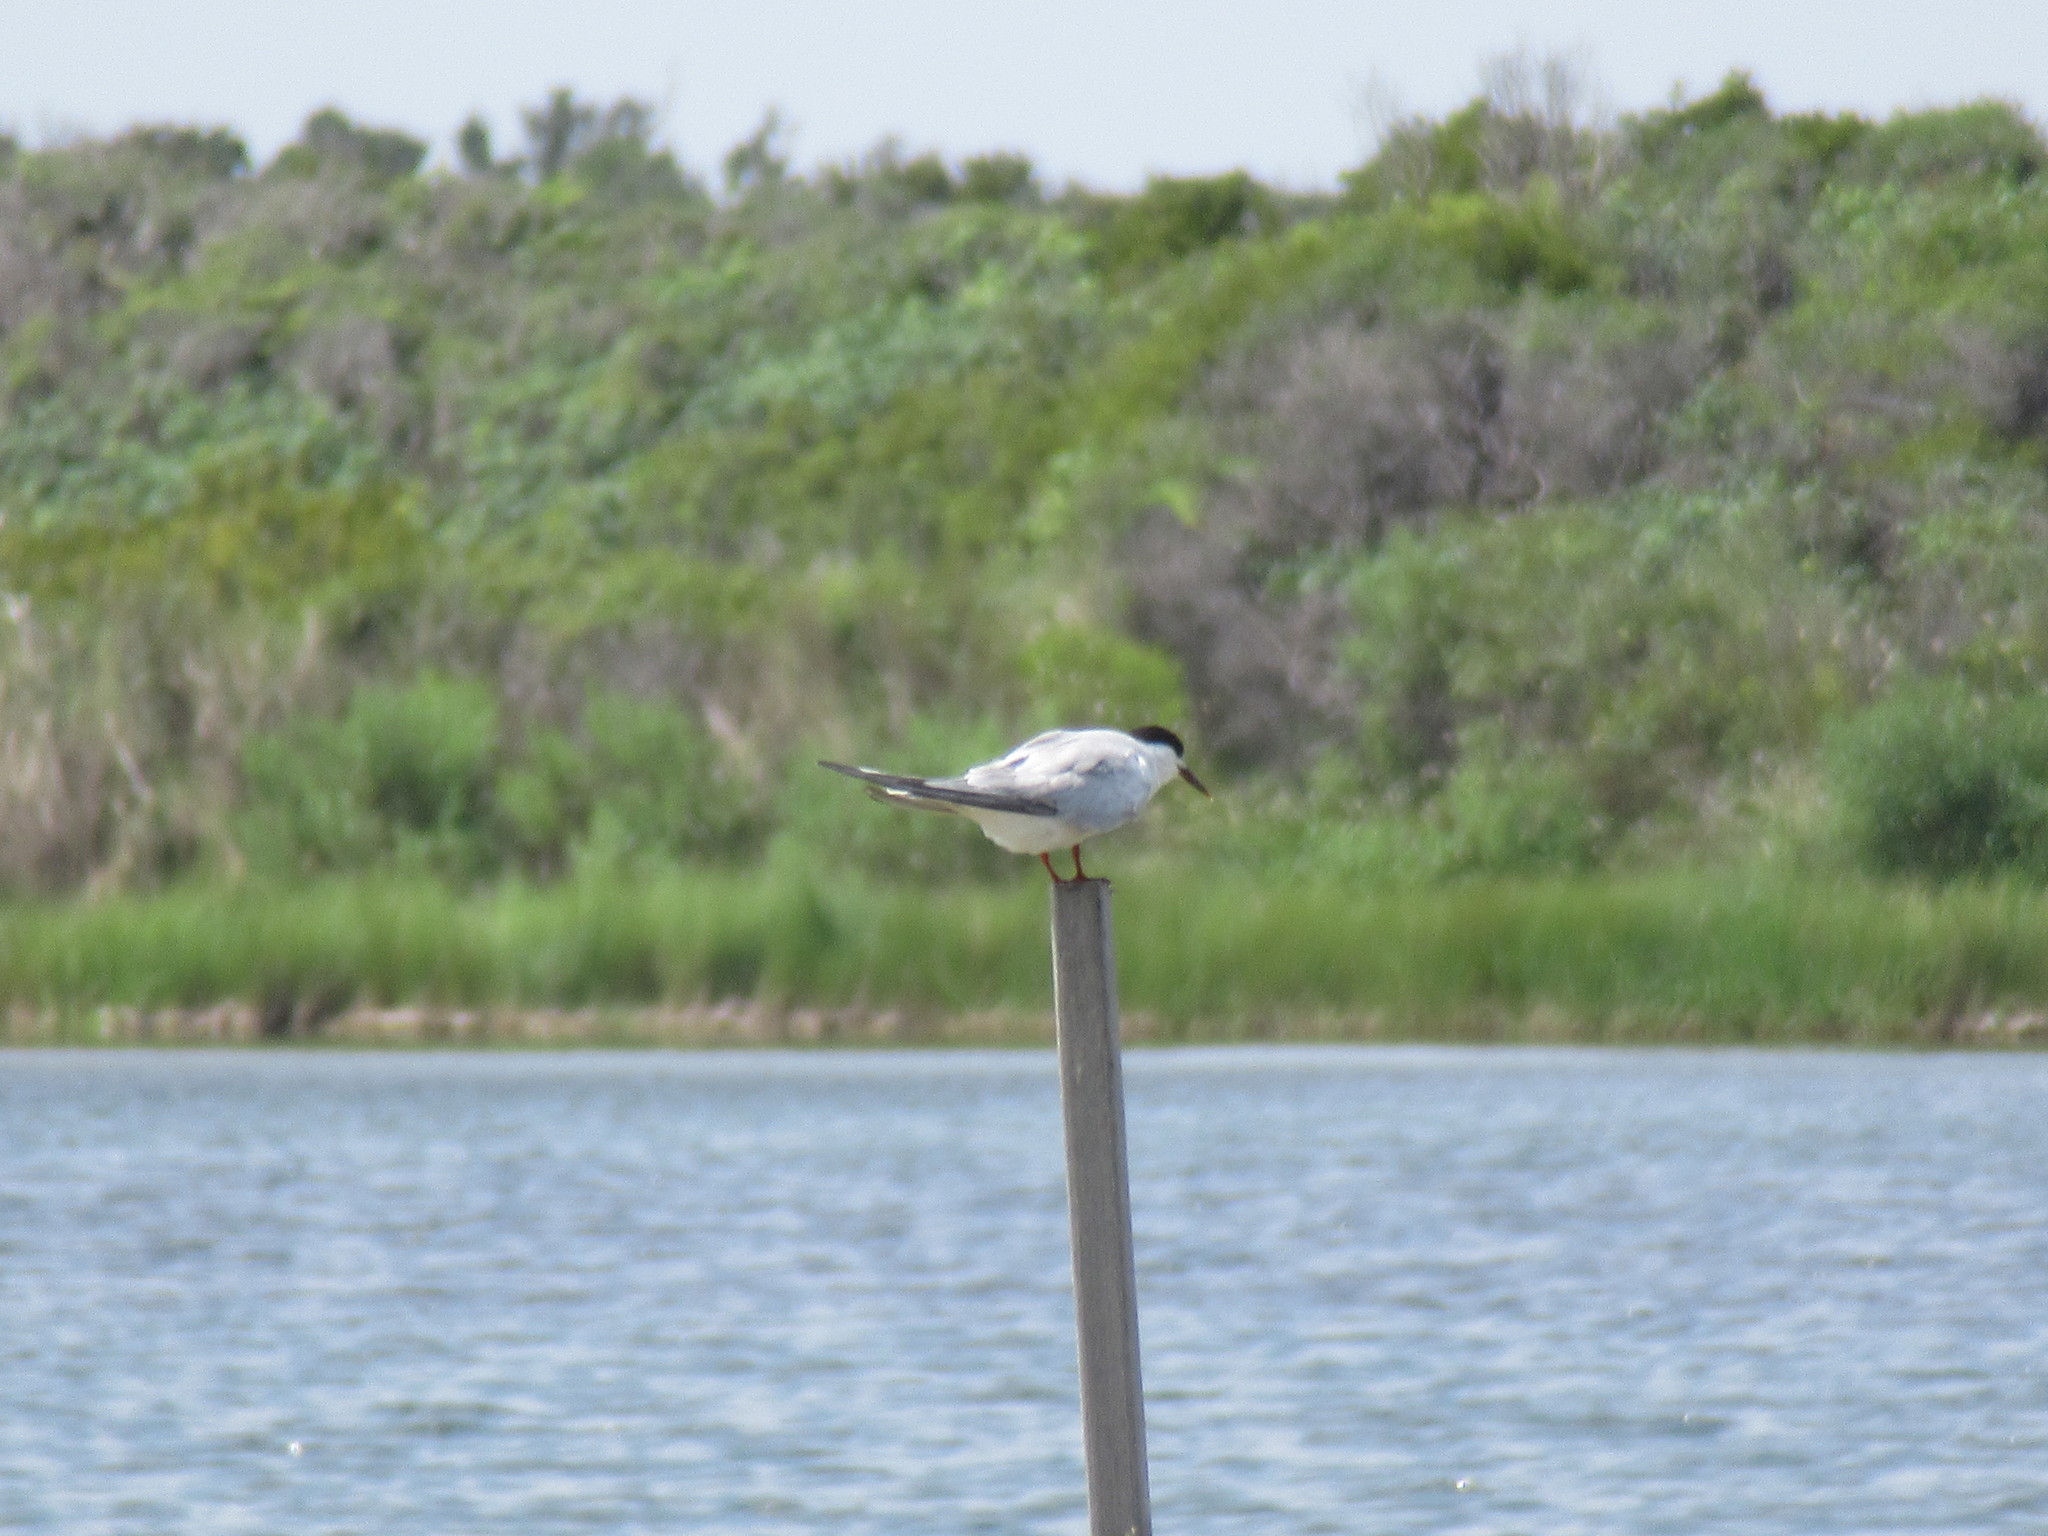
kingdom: Animalia
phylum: Chordata
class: Aves
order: Charadriiformes
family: Laridae
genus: Sterna
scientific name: Sterna hirundo
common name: Common tern
